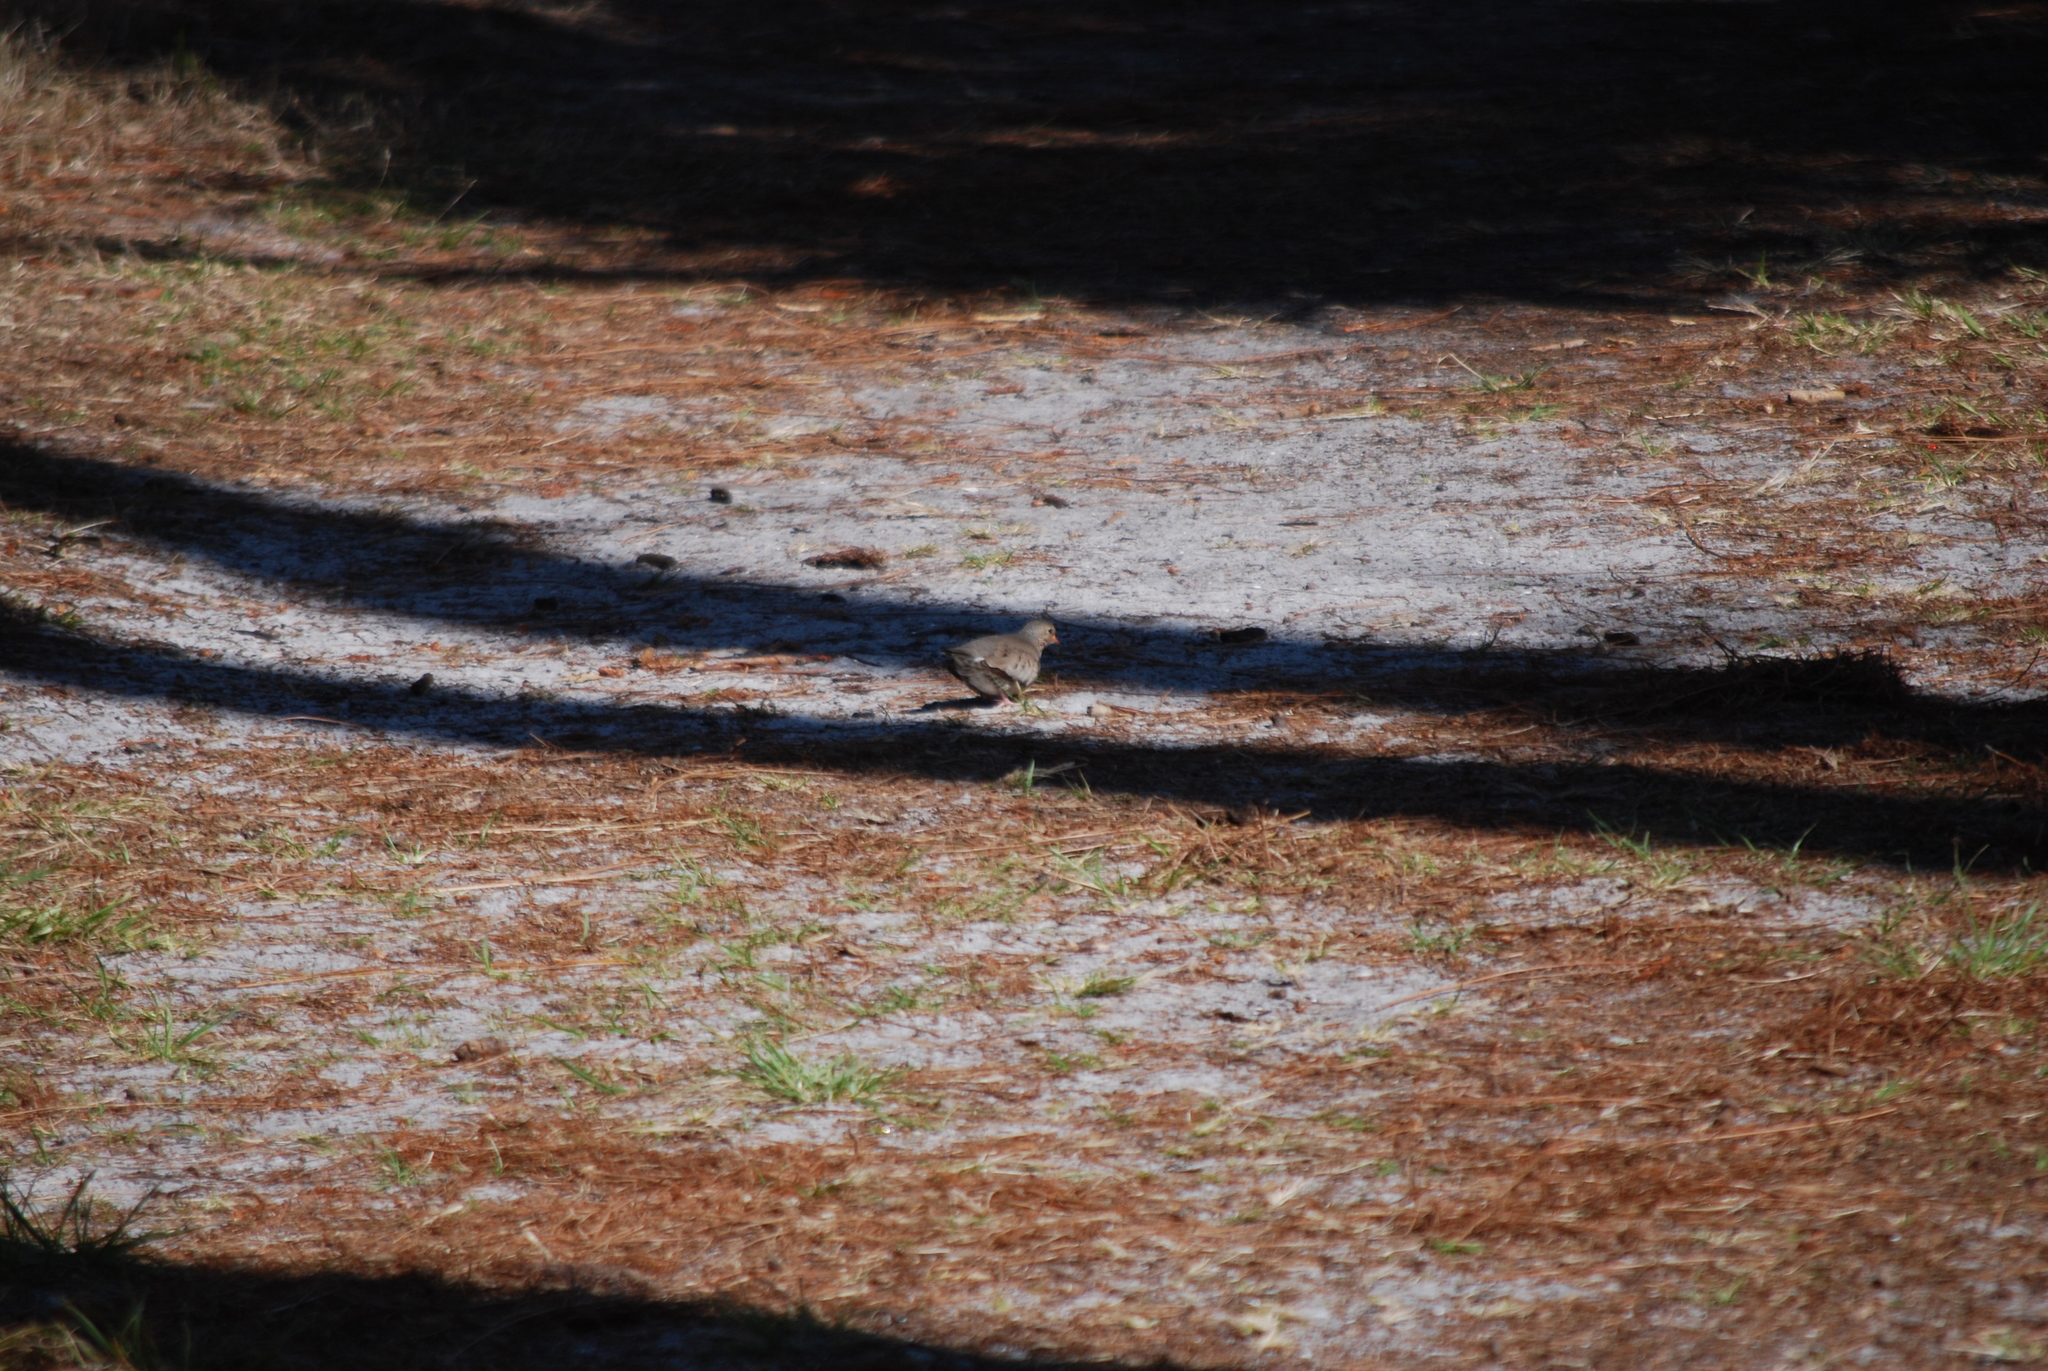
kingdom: Animalia
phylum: Chordata
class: Aves
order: Columbiformes
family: Columbidae
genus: Columbina
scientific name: Columbina passerina
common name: Common ground-dove
